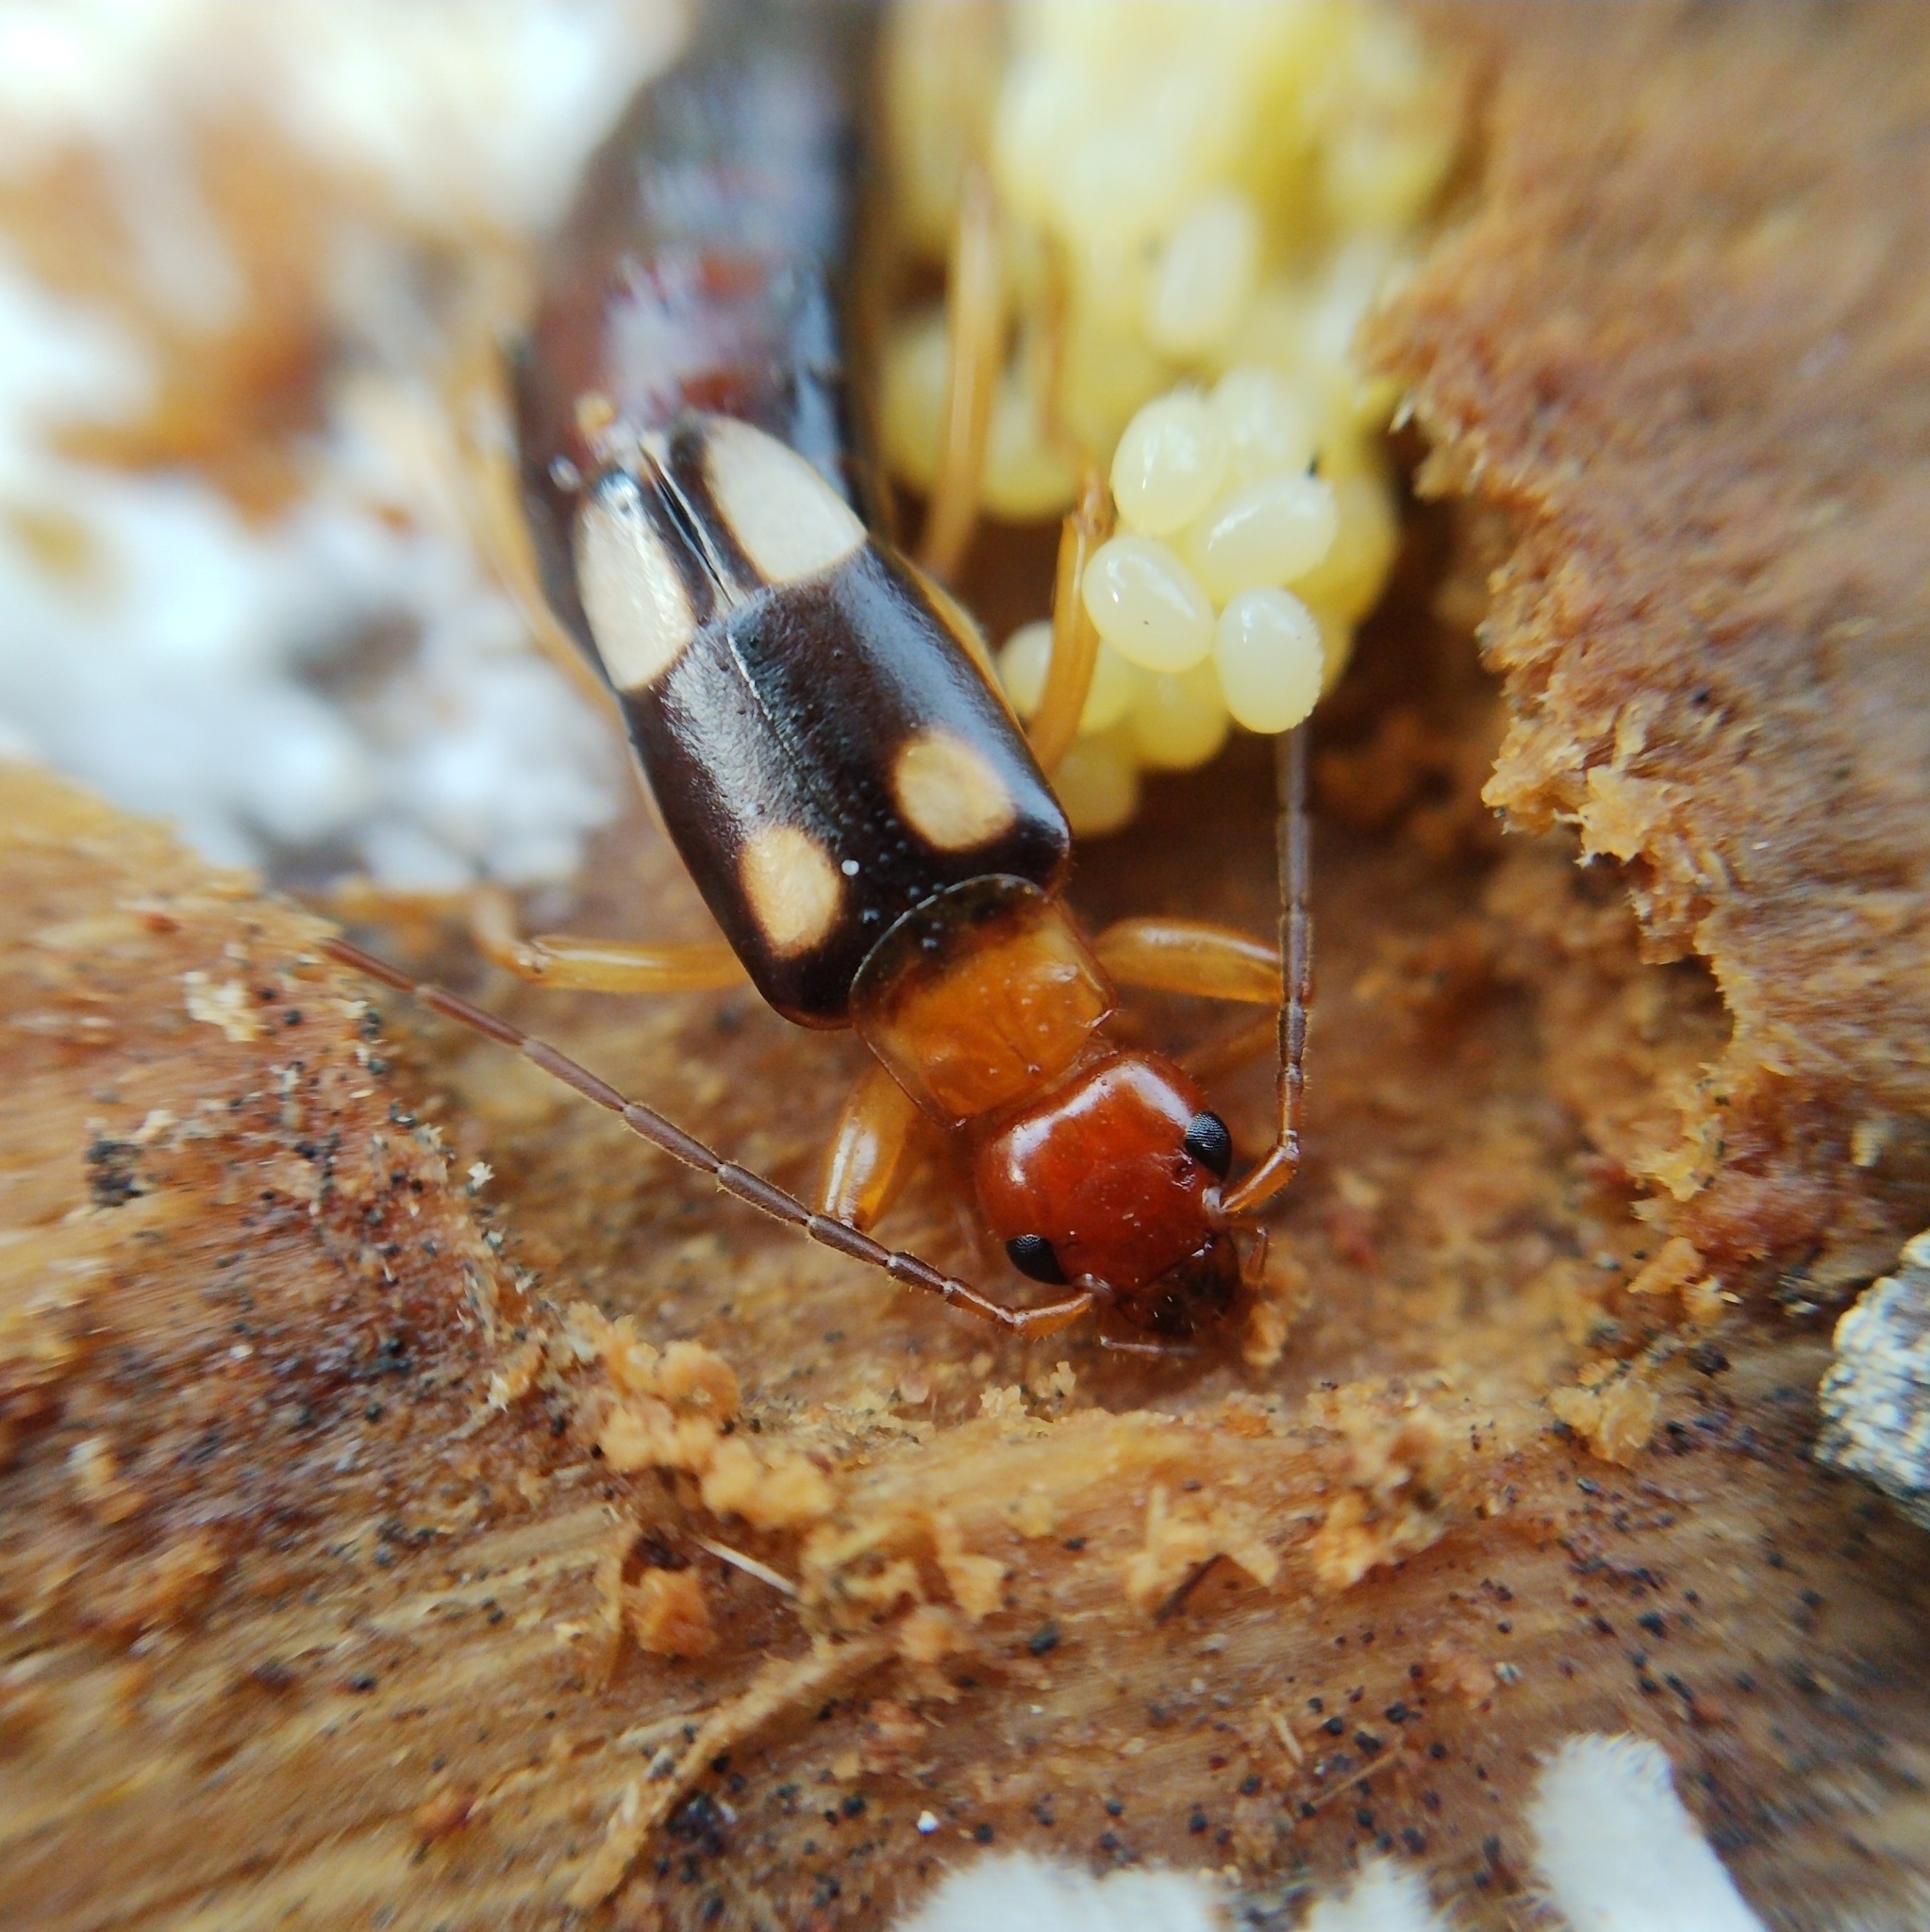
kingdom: Animalia
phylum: Arthropoda
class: Insecta
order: Dermaptera
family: Forficulidae
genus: Forficula
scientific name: Forficula smyrnensis
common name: Smyrna earwig
